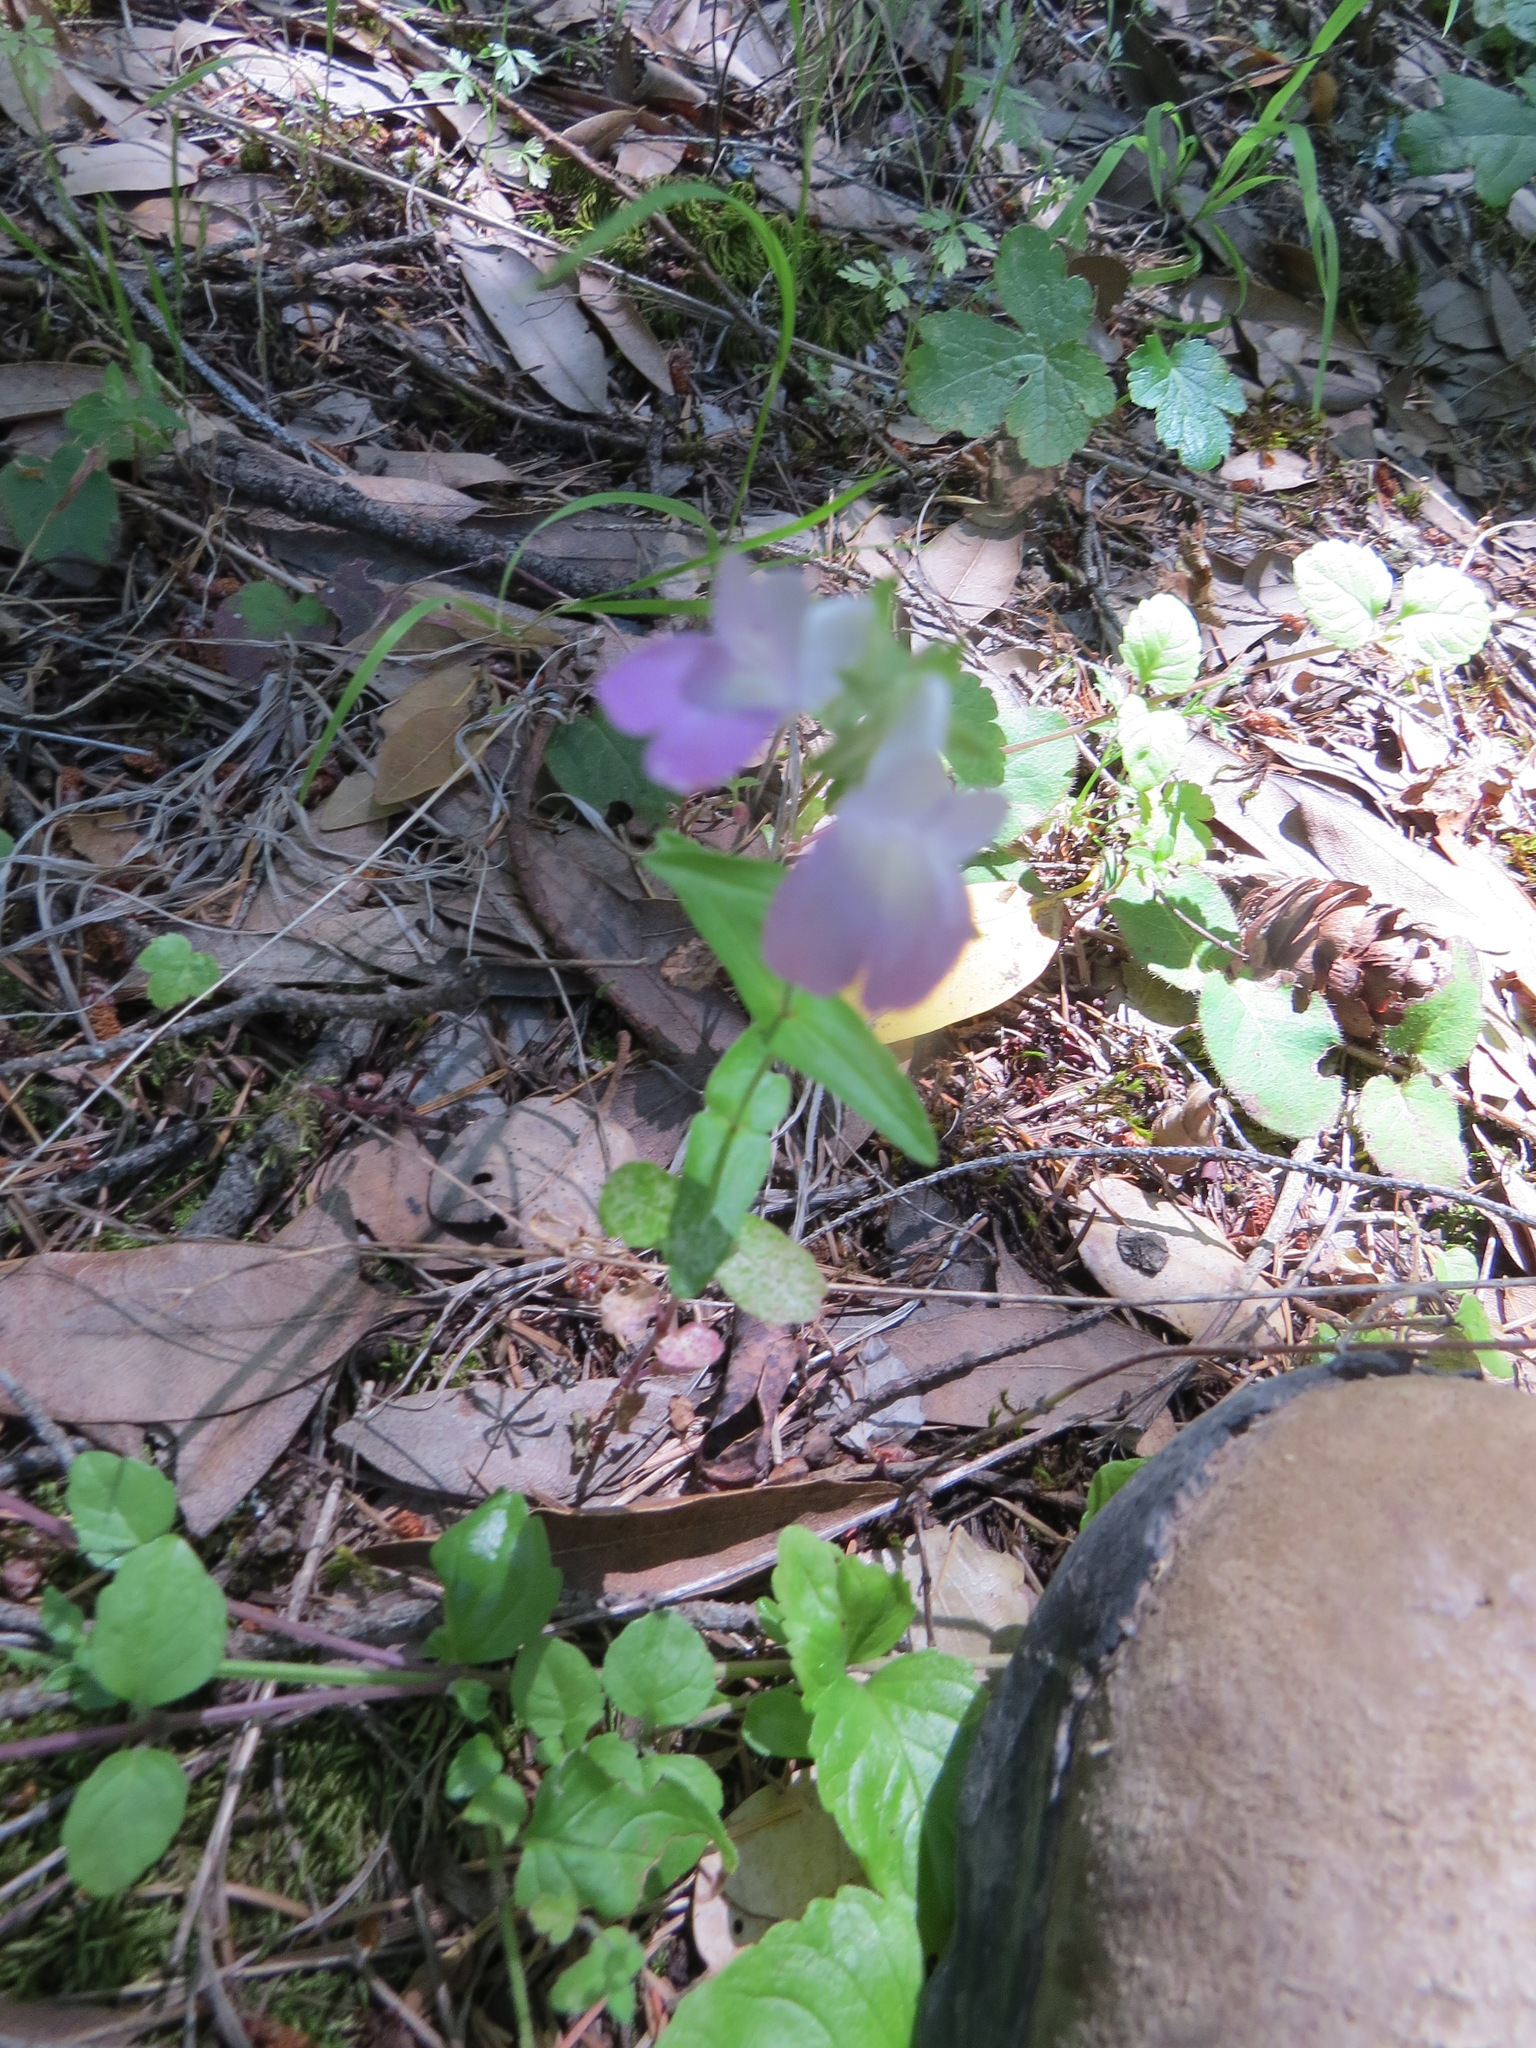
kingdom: Plantae
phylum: Tracheophyta
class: Magnoliopsida
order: Lamiales
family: Plantaginaceae
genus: Collinsia
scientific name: Collinsia heterophylla
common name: Chinese-houses
